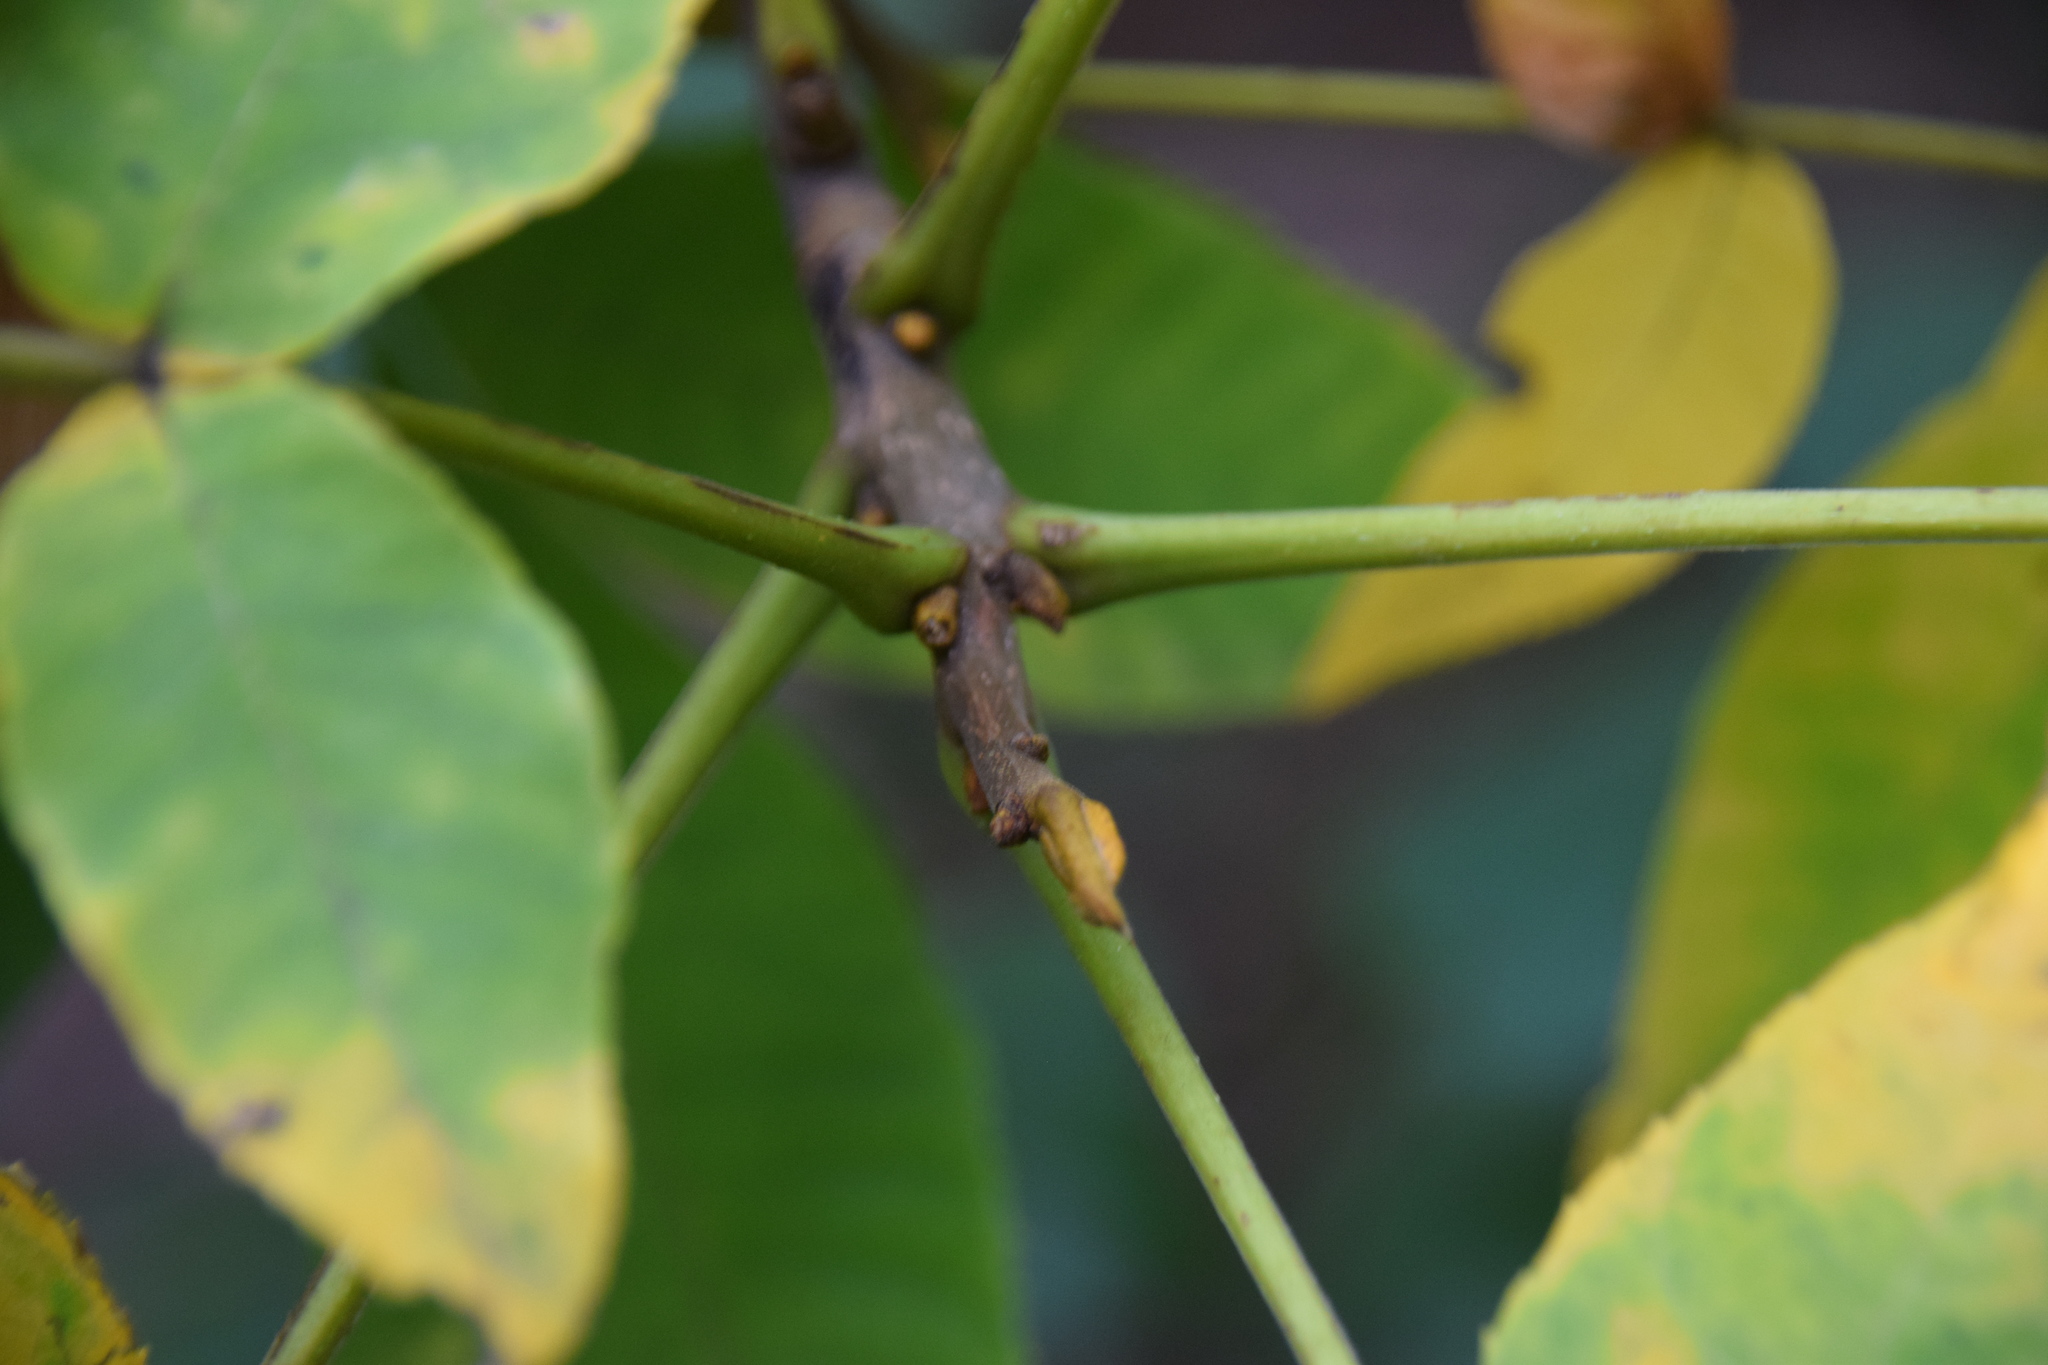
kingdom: Plantae
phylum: Tracheophyta
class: Magnoliopsida
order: Fagales
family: Juglandaceae
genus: Carya
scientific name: Carya cordiformis
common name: Bitternut hickory
